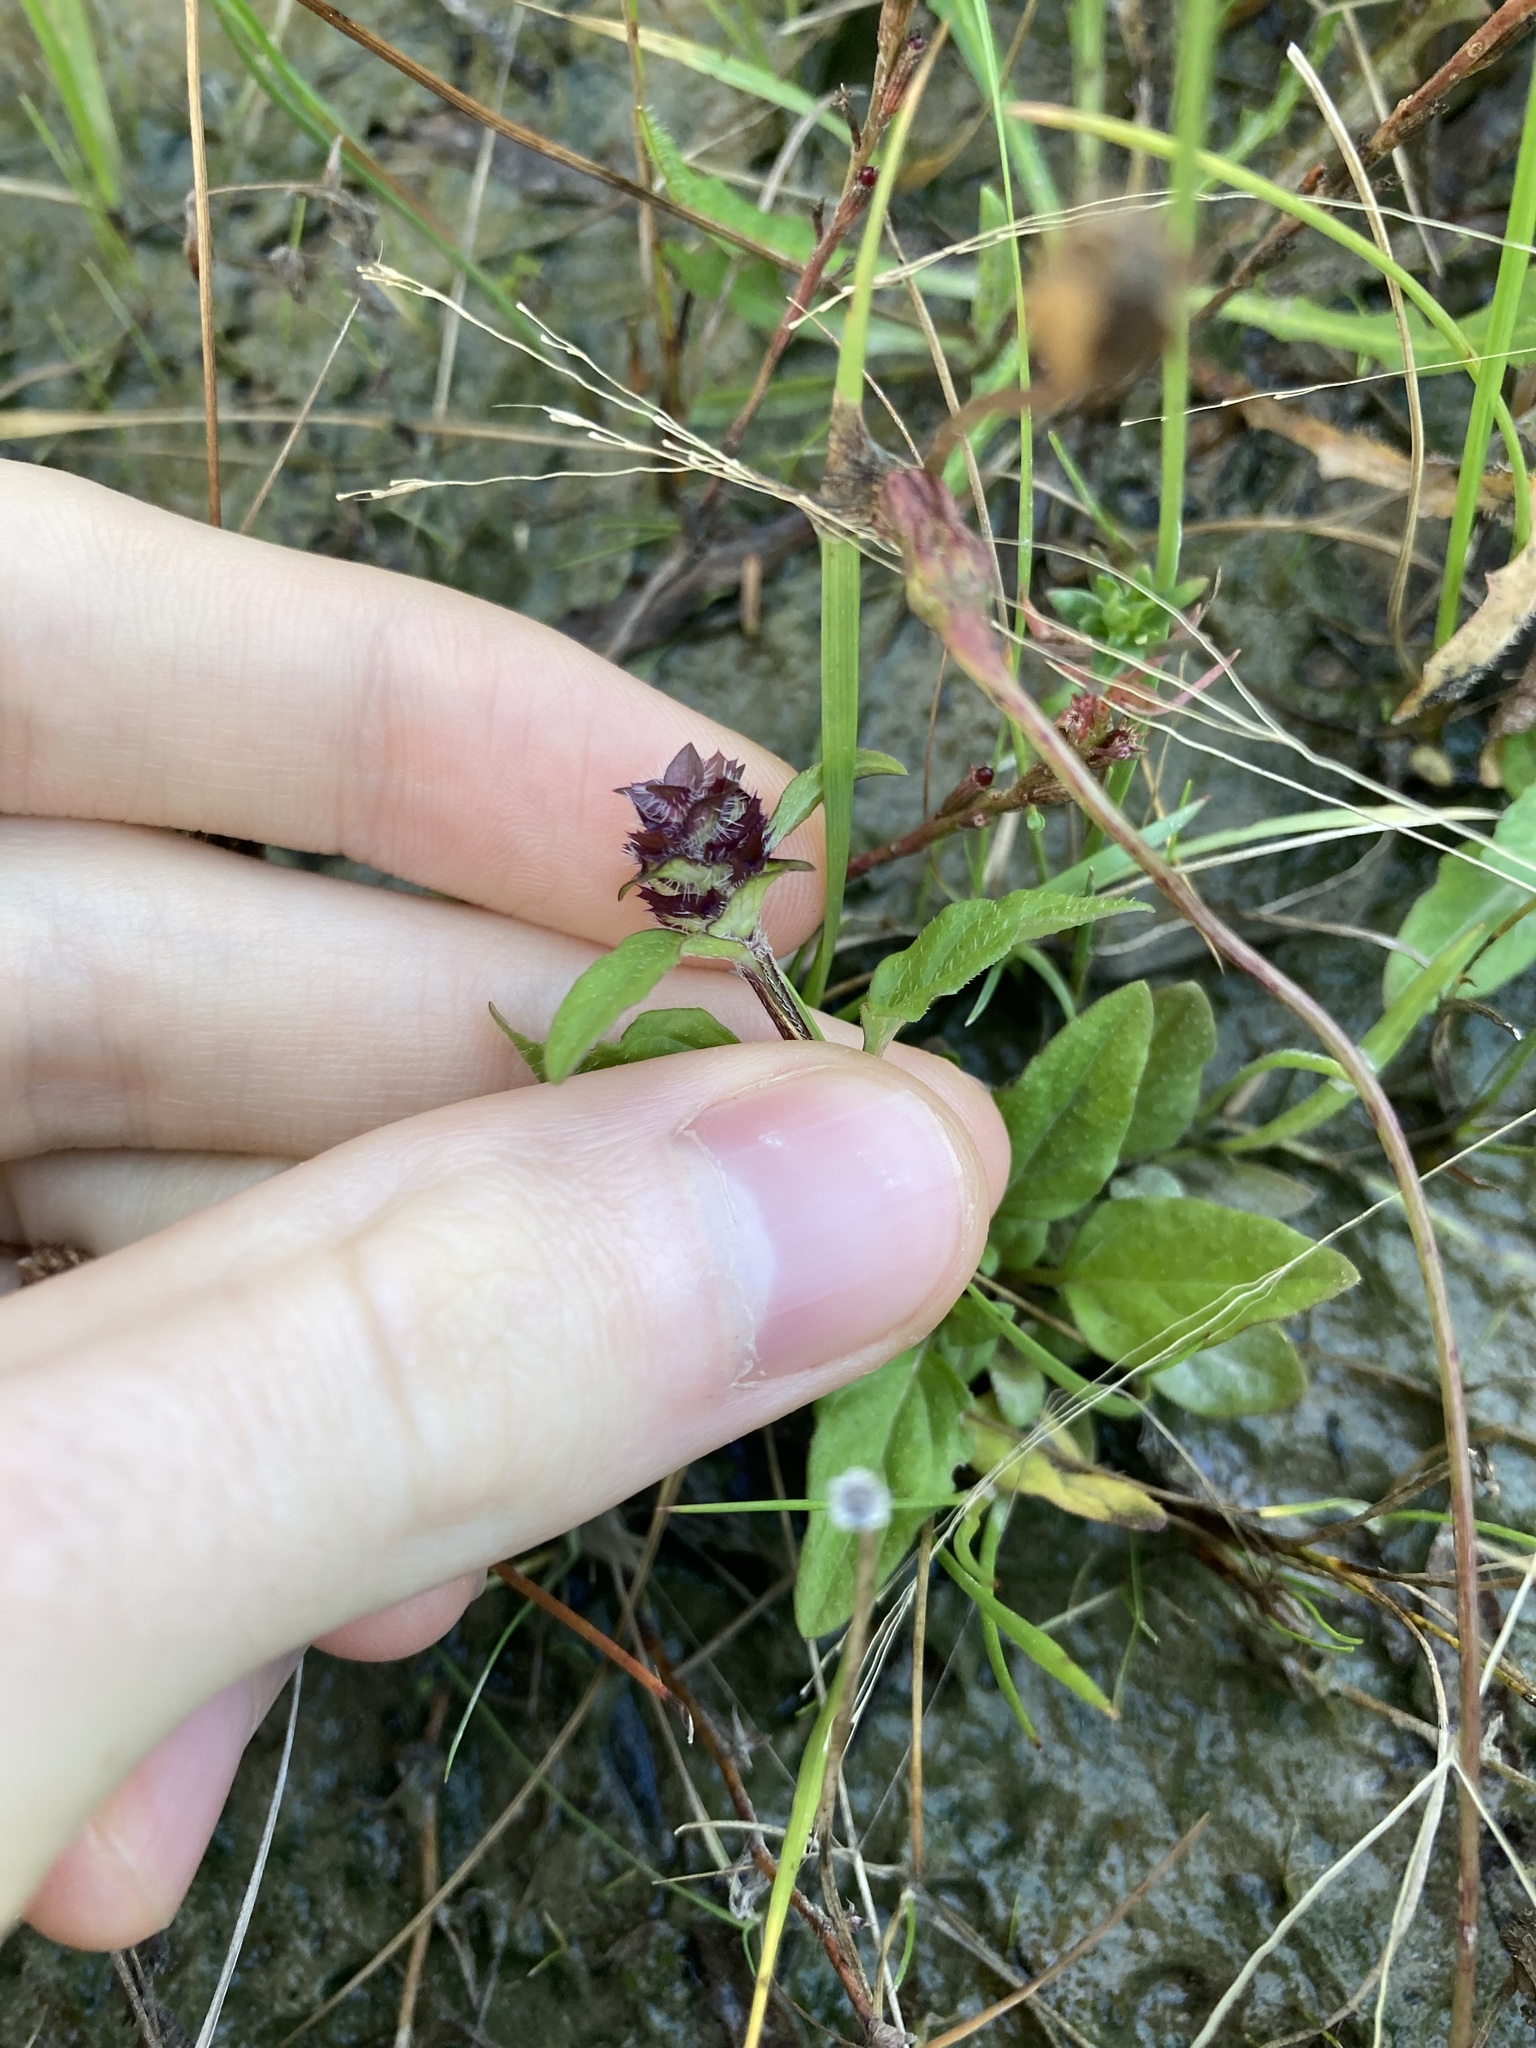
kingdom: Plantae
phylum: Tracheophyta
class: Magnoliopsida
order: Lamiales
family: Lamiaceae
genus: Prunella
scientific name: Prunella vulgaris
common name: Heal-all
